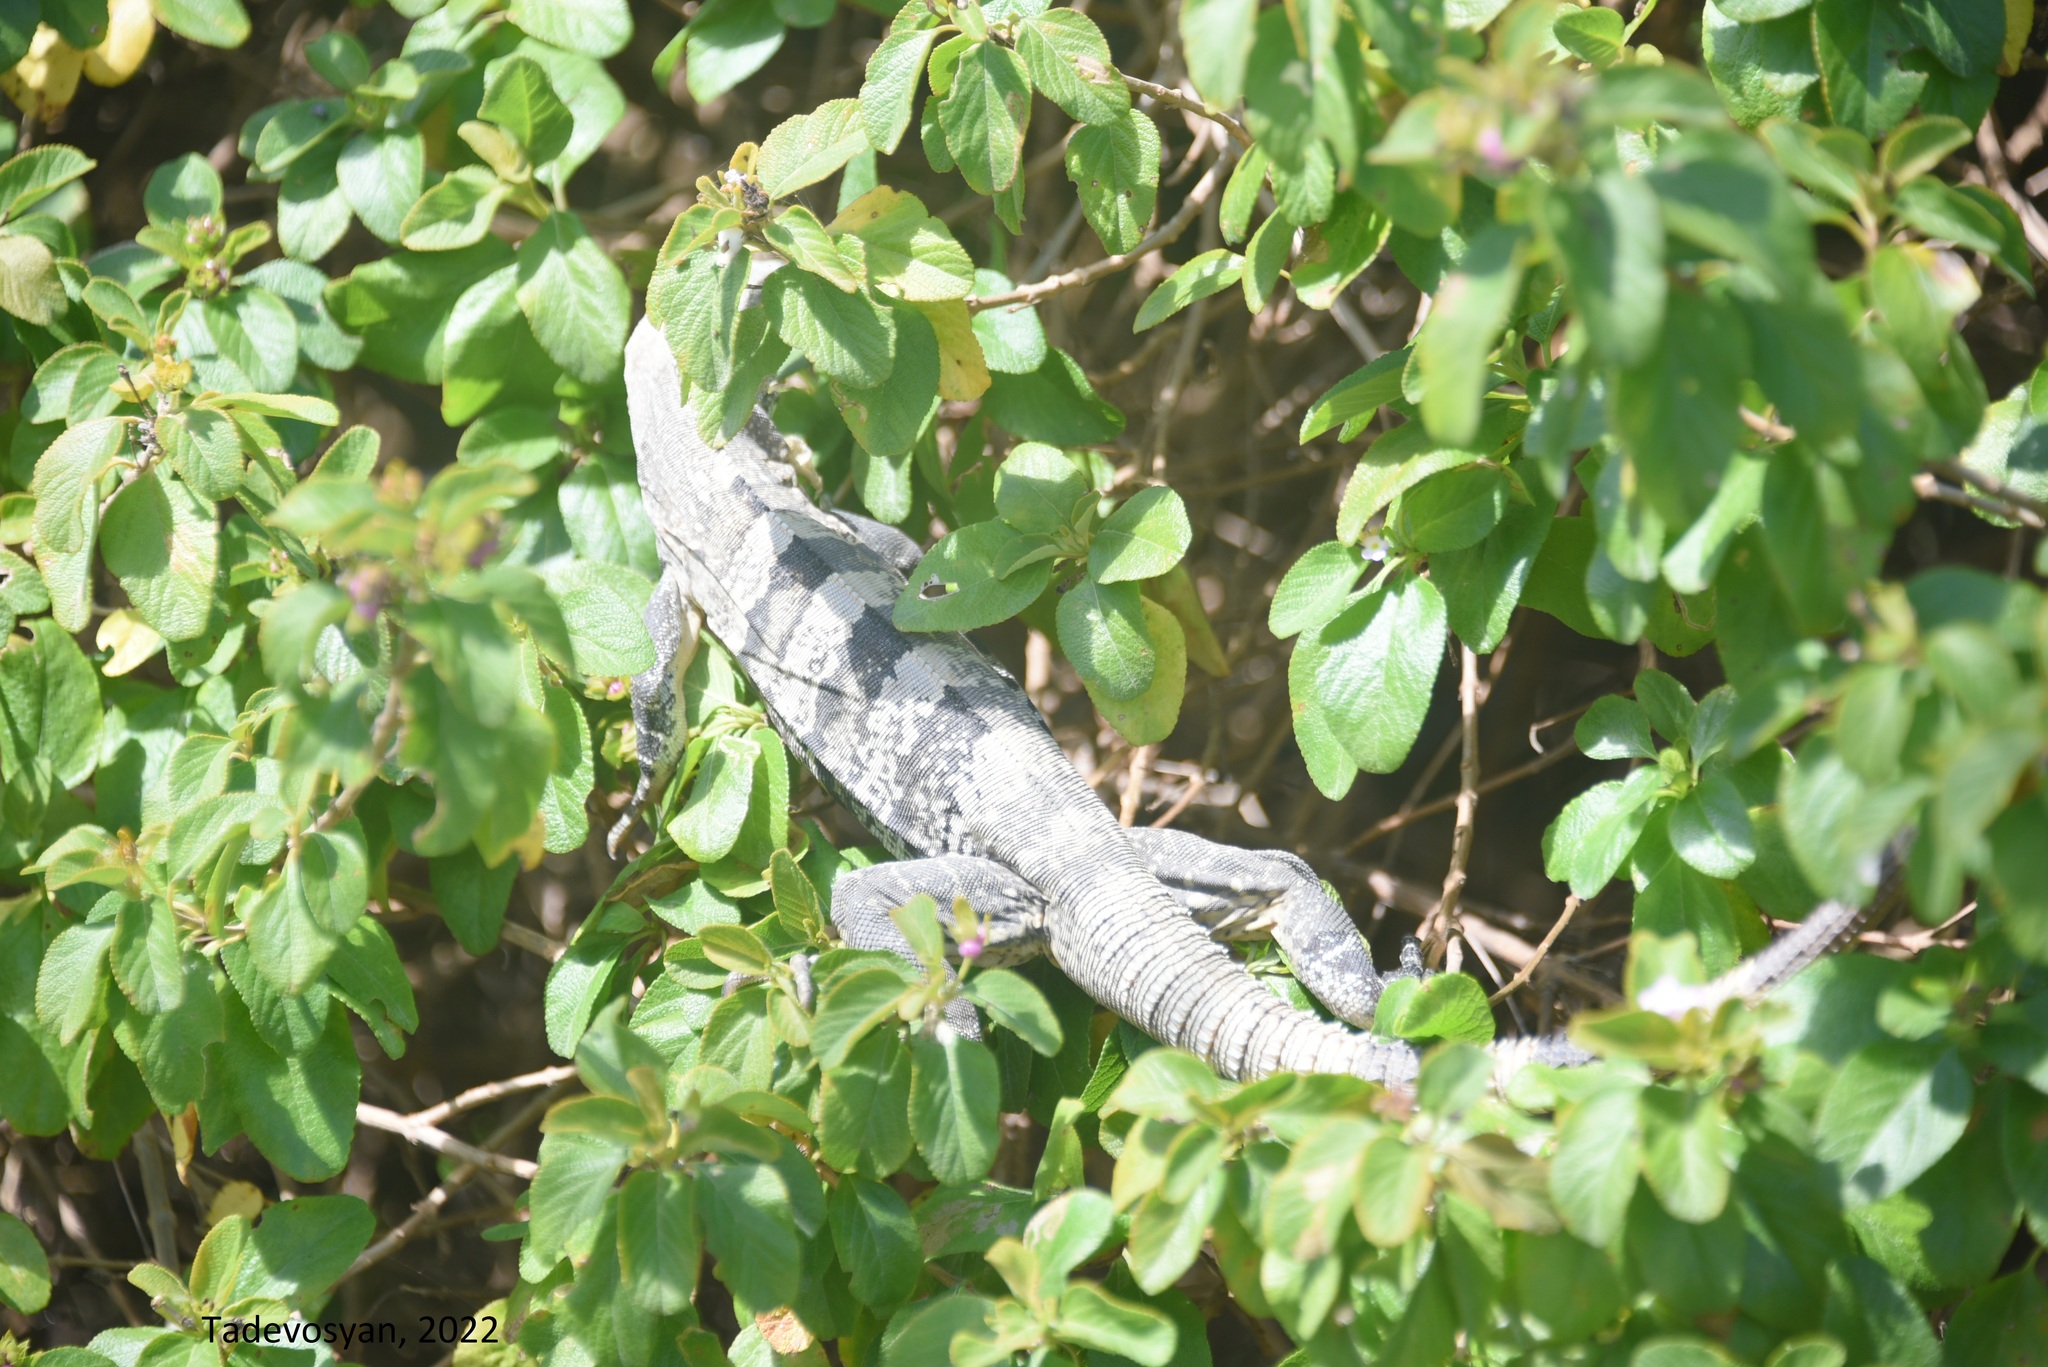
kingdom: Animalia
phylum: Chordata
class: Squamata
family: Iguanidae
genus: Ctenosaura
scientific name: Ctenosaura similis
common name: Black spiny-tailed iguana
